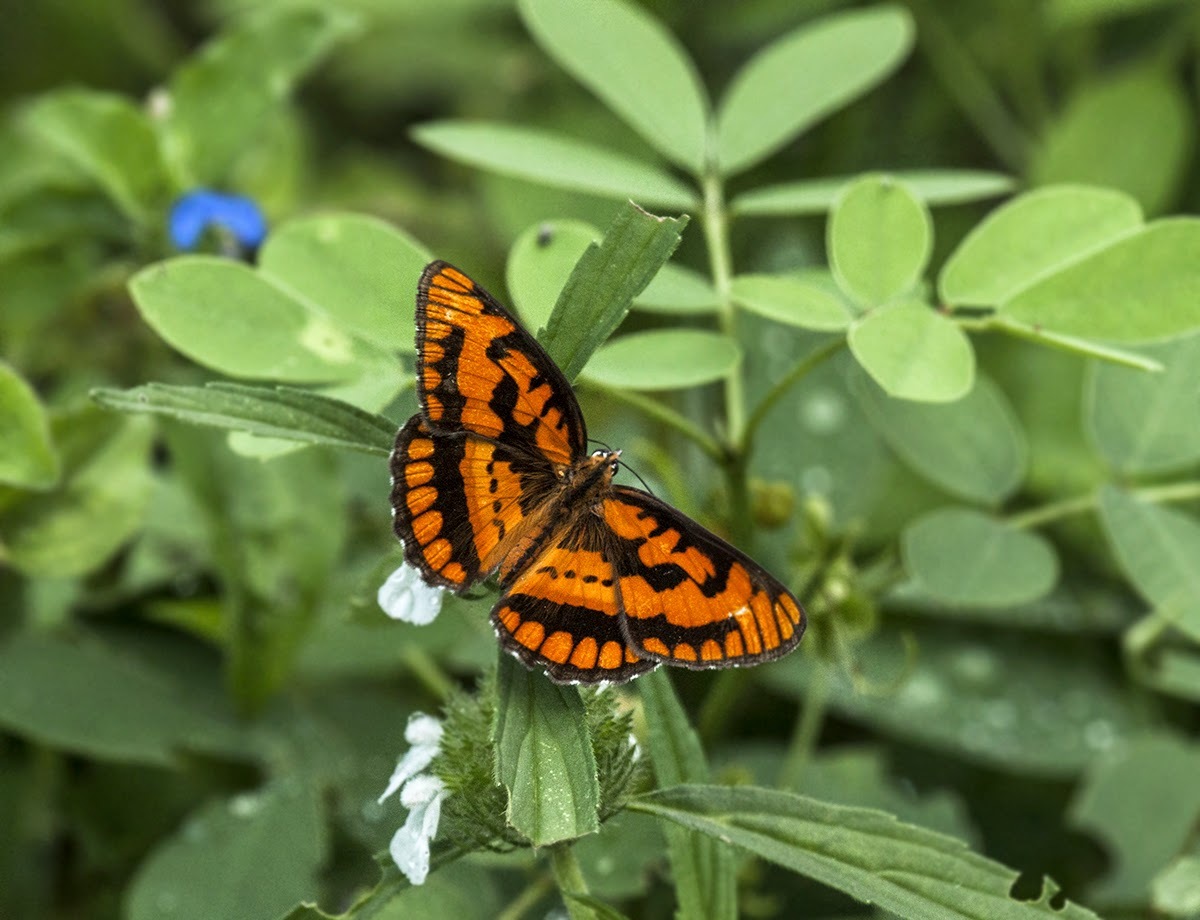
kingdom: Animalia
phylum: Arthropoda
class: Insecta
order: Lepidoptera
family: Nymphalidae
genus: Byblia
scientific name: Byblia ilithyia
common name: Spotted joker
